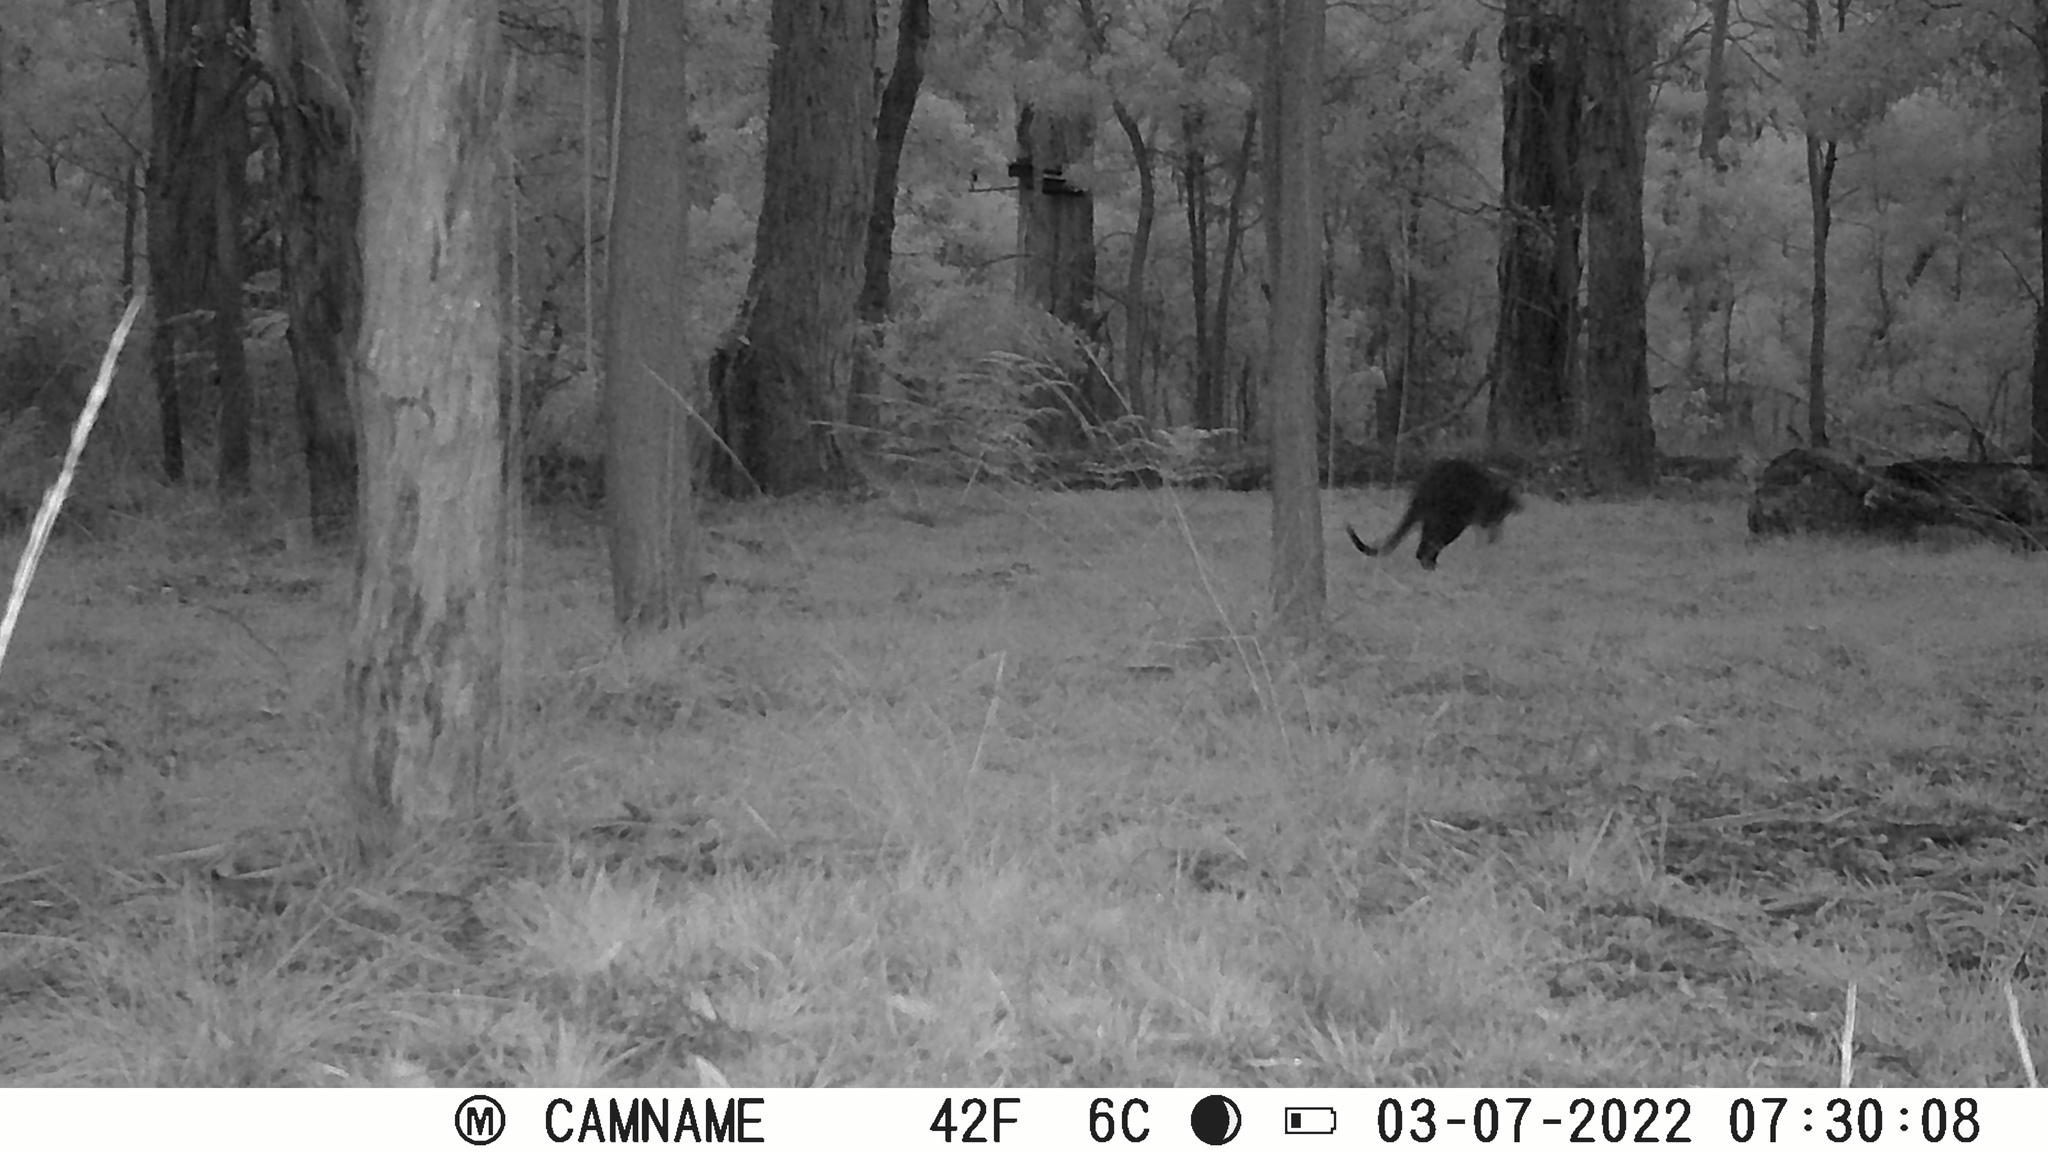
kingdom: Animalia
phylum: Chordata
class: Mammalia
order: Diprotodontia
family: Macropodidae
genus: Wallabia
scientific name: Wallabia bicolor
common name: Swamp wallaby
